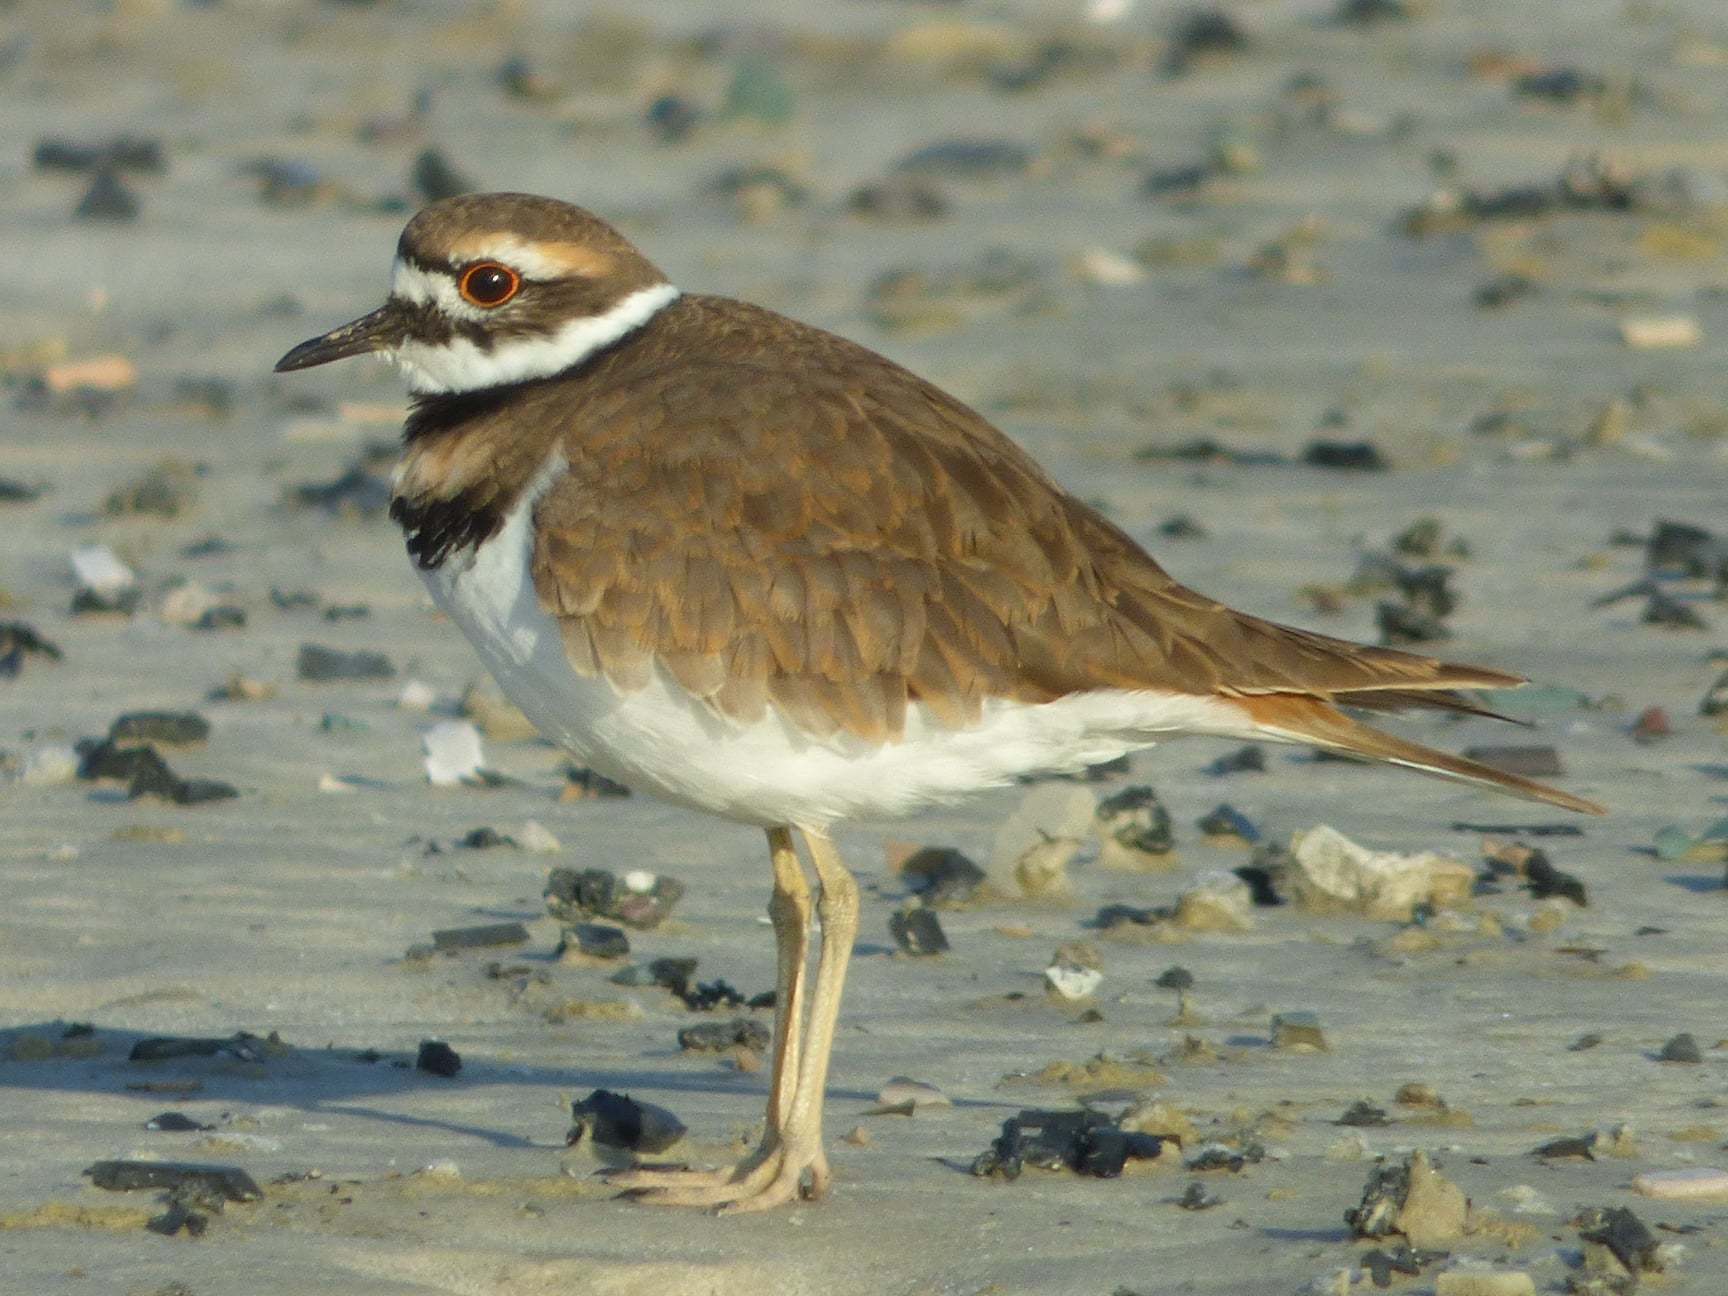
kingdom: Animalia
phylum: Chordata
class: Aves
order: Charadriiformes
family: Charadriidae
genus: Charadrius
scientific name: Charadrius vociferus
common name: Killdeer
